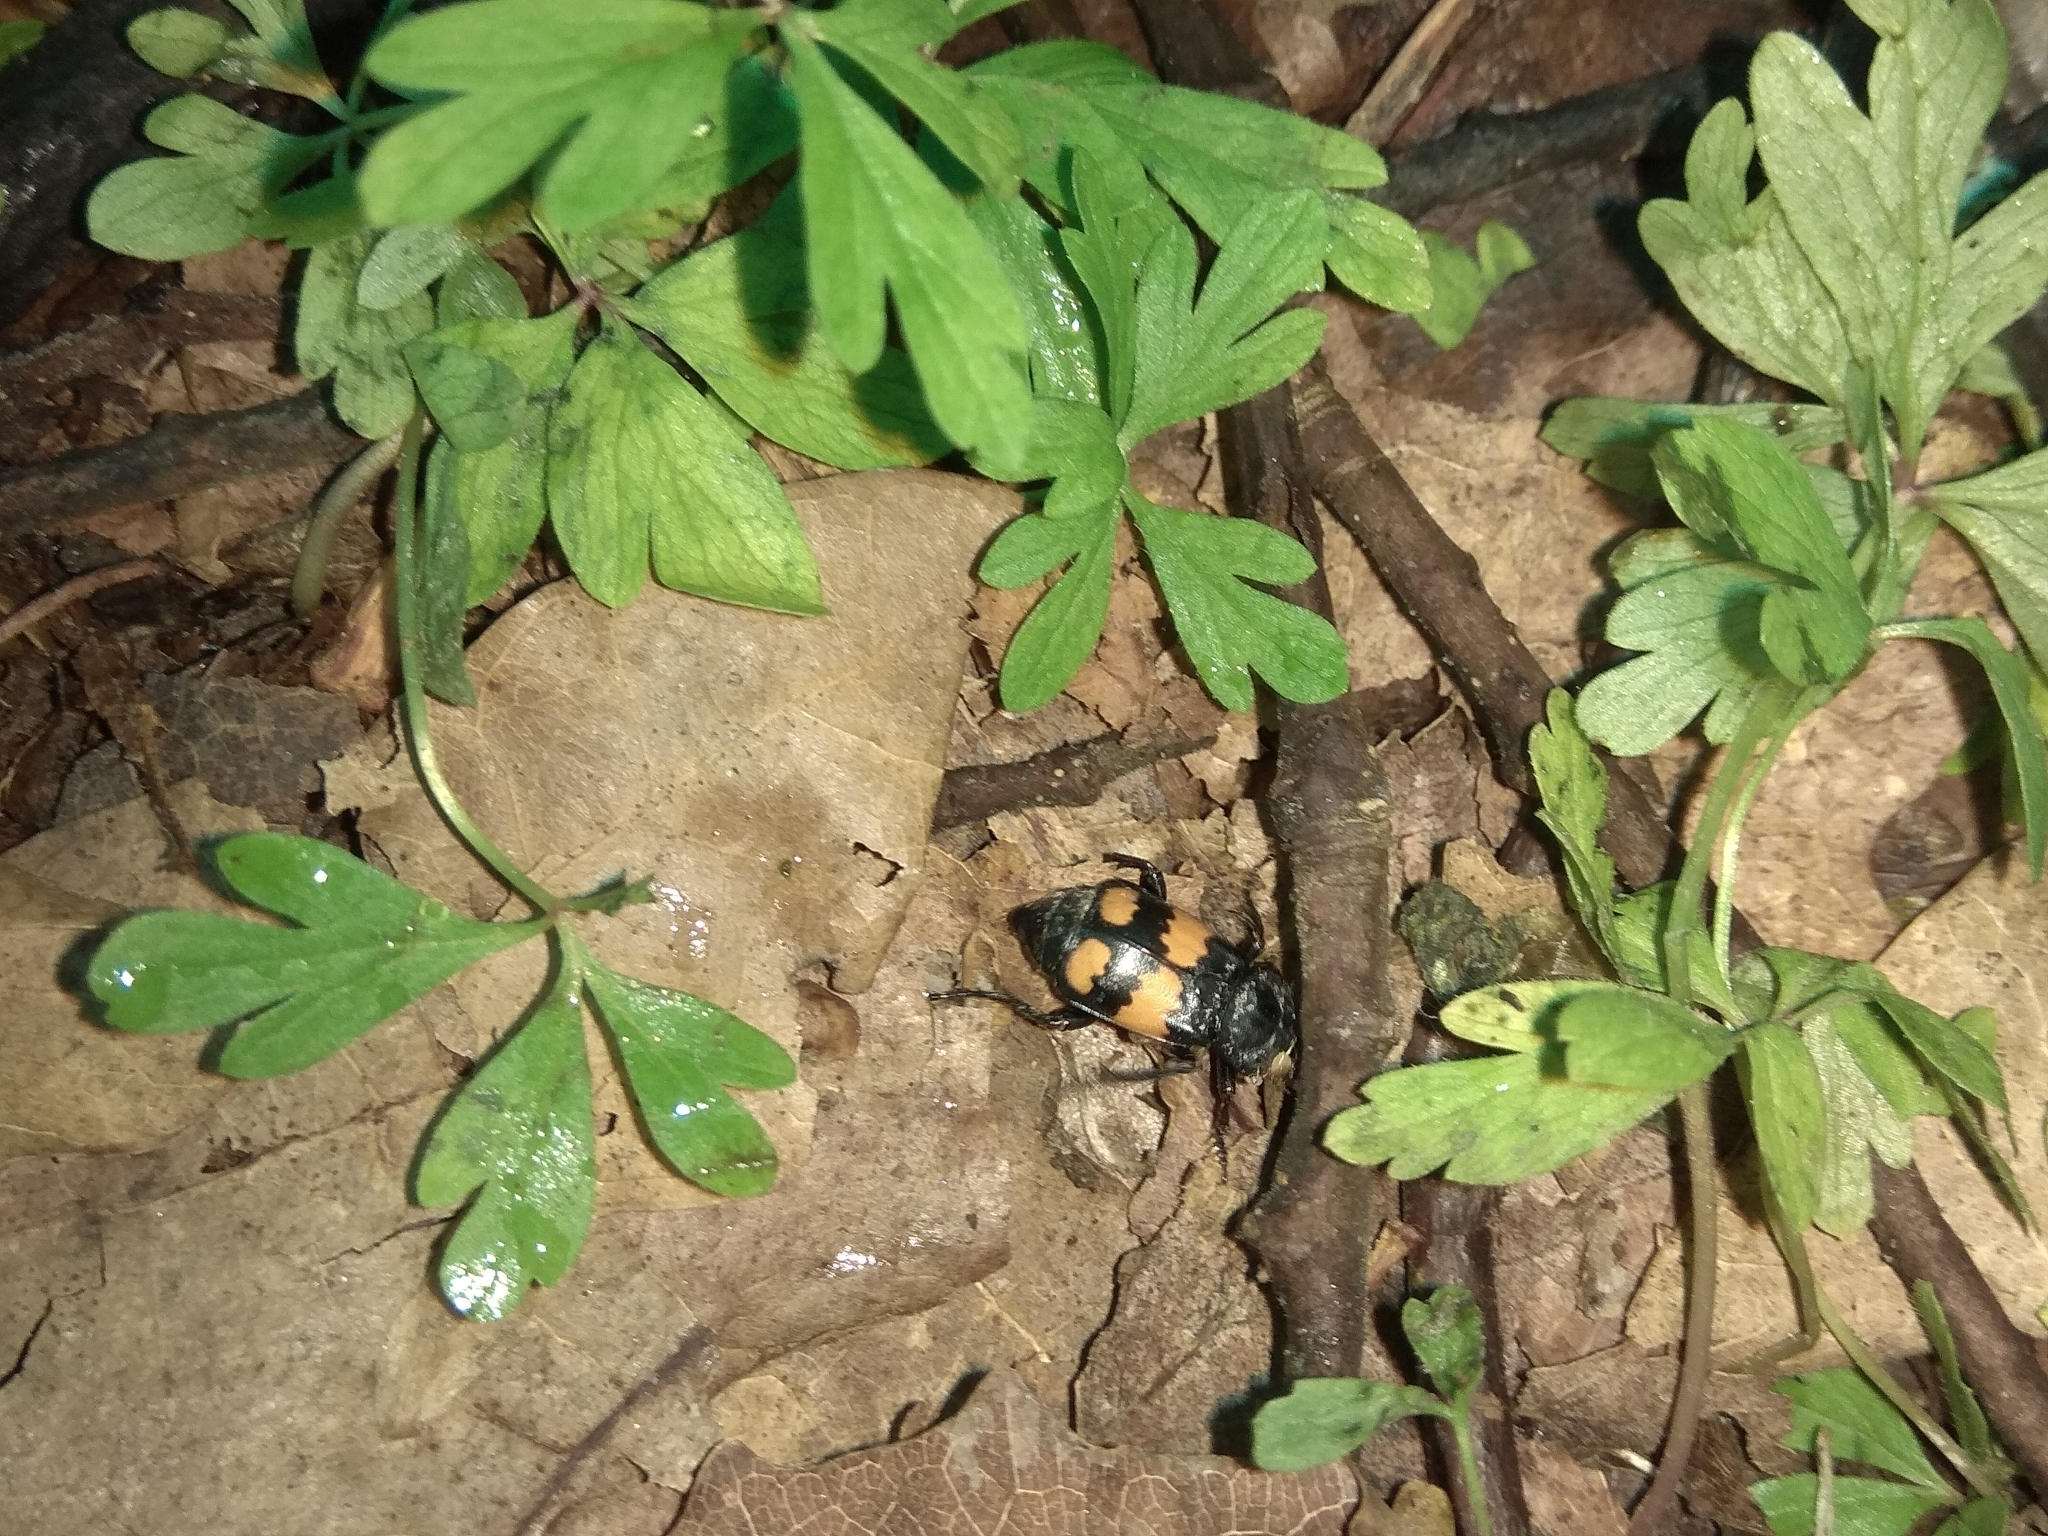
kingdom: Animalia
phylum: Arthropoda
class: Insecta
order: Coleoptera
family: Staphylinidae
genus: Nicrophorus
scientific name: Nicrophorus vespilloides
